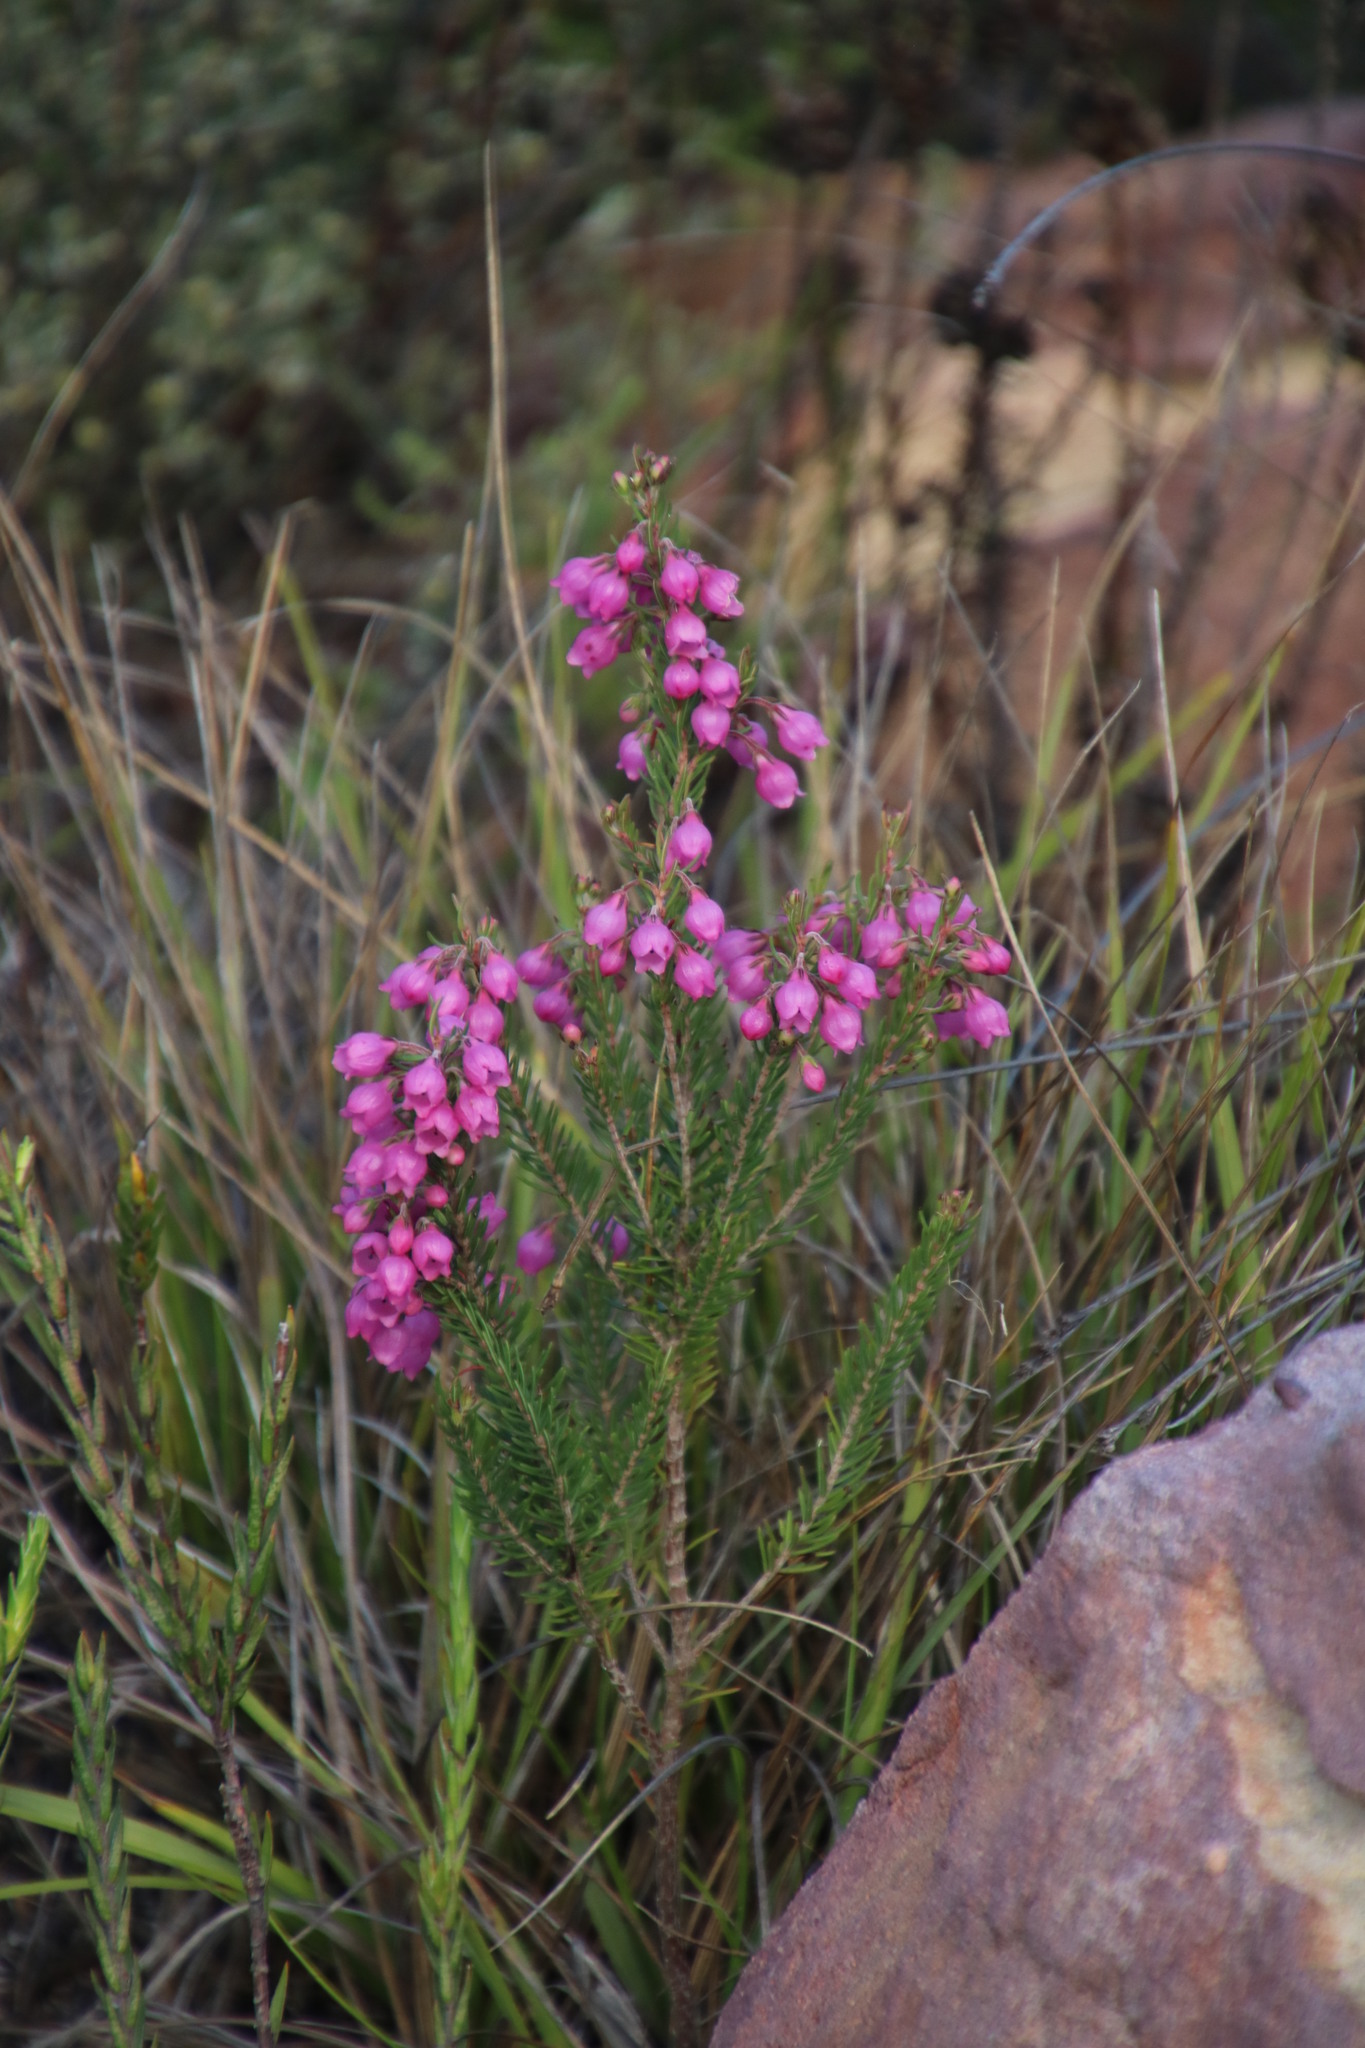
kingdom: Plantae
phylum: Tracheophyta
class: Magnoliopsida
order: Ericales
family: Ericaceae
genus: Erica
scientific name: Erica viscaria
